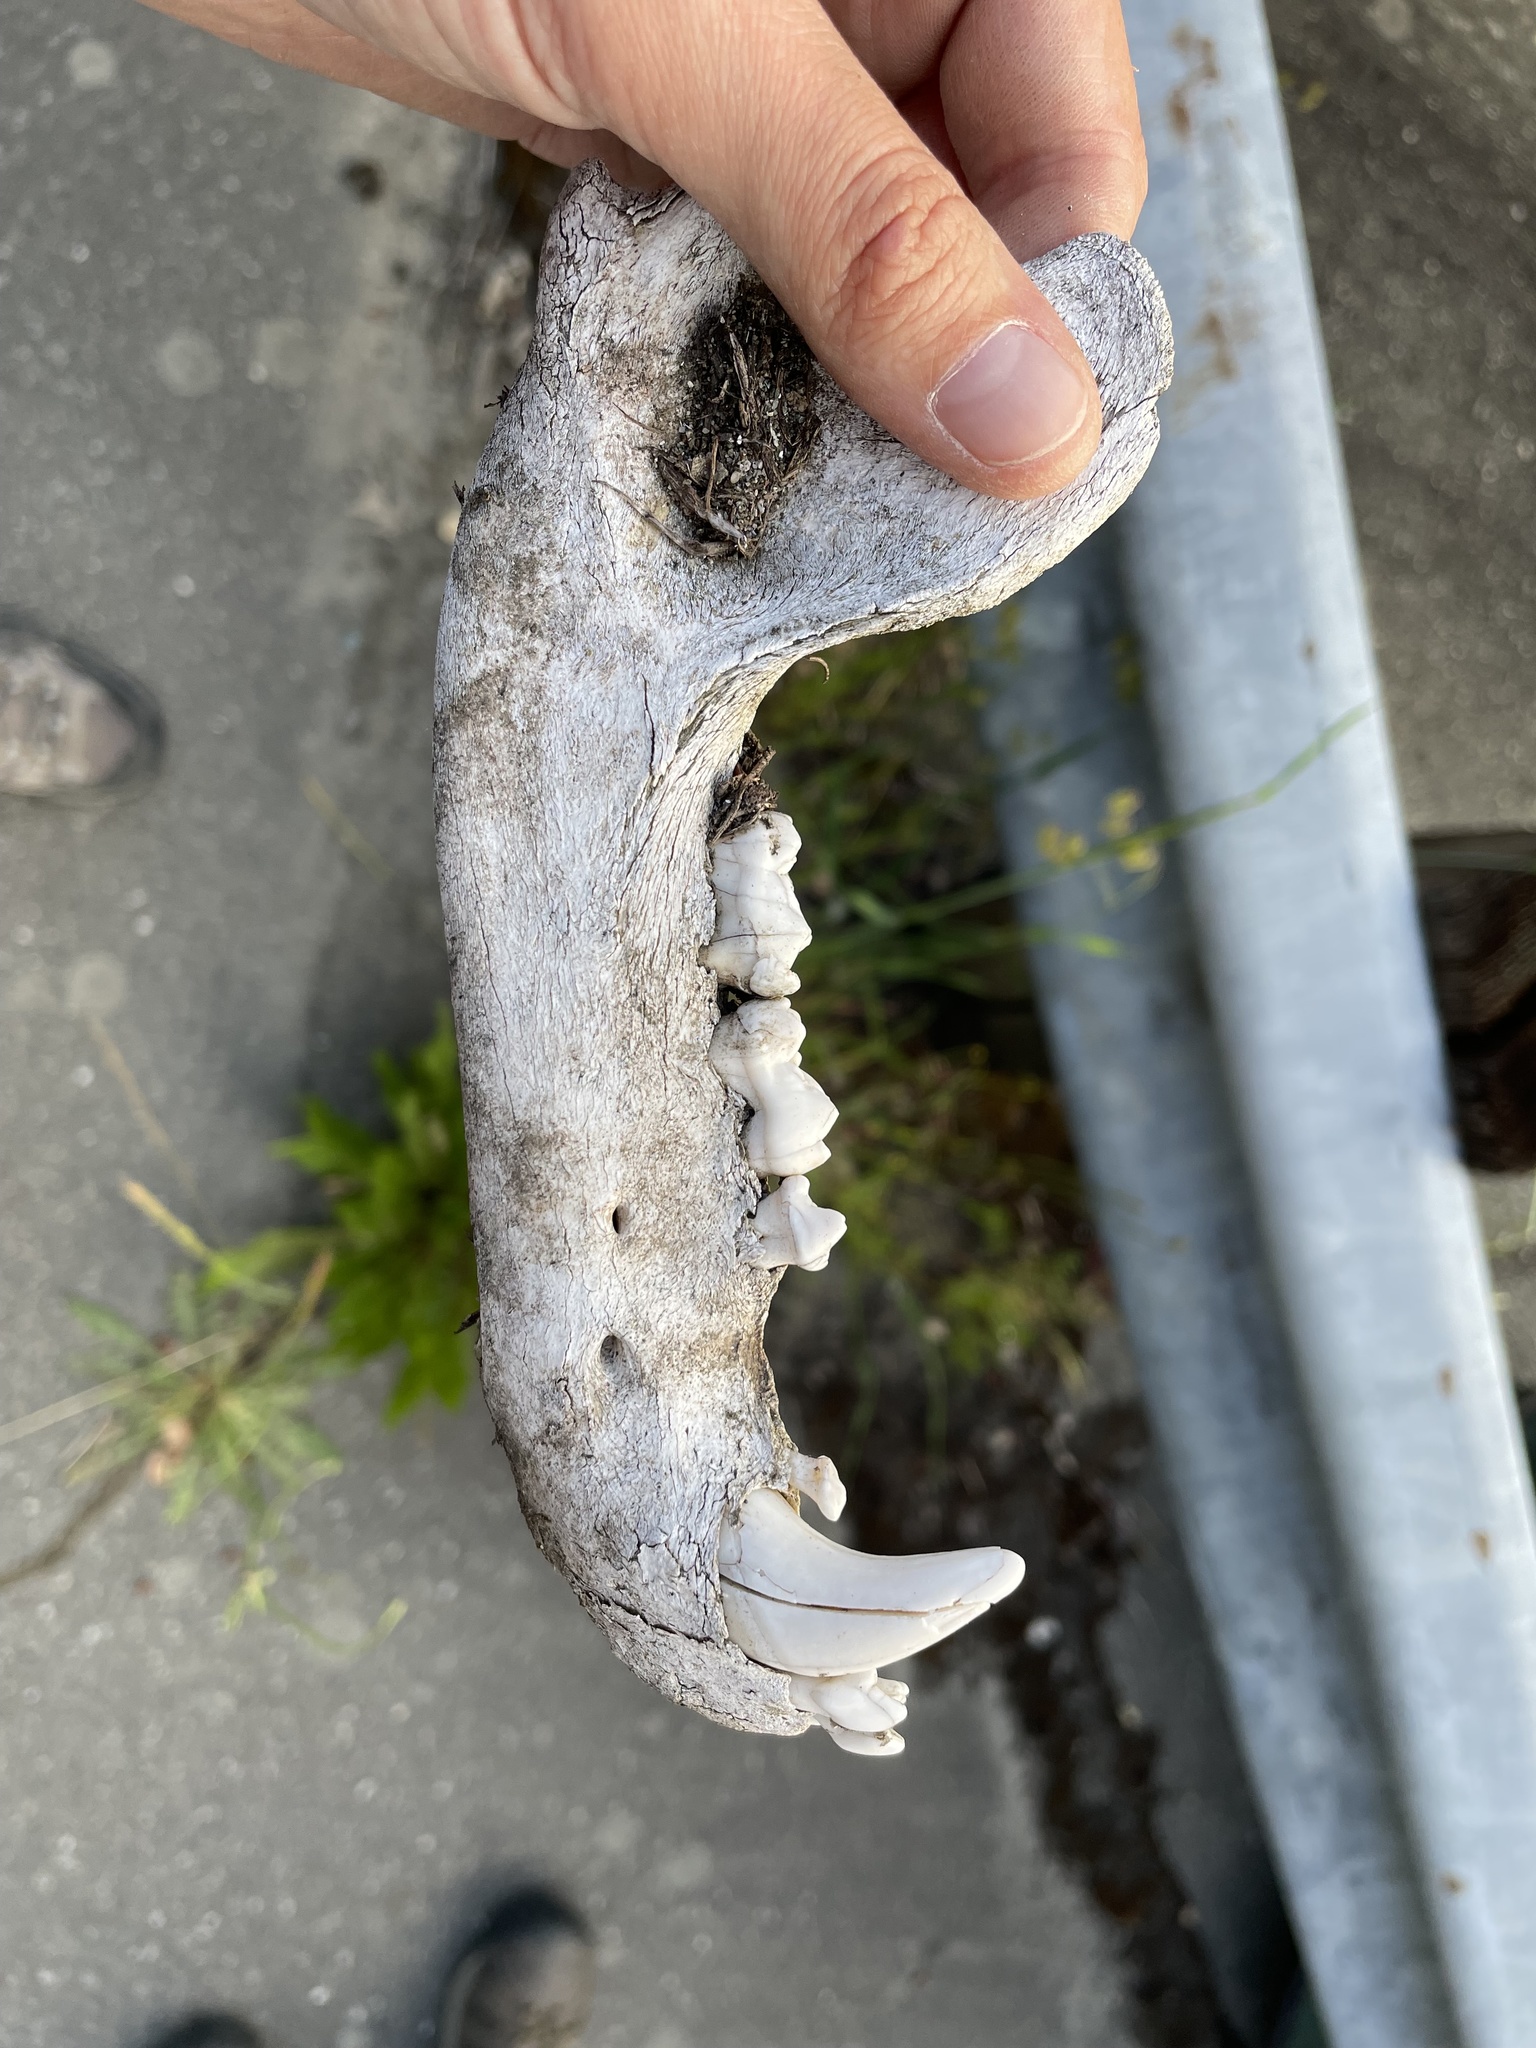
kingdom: Animalia
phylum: Chordata
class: Mammalia
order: Carnivora
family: Ursidae
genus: Ursus
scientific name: Ursus americanus
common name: American black bear
